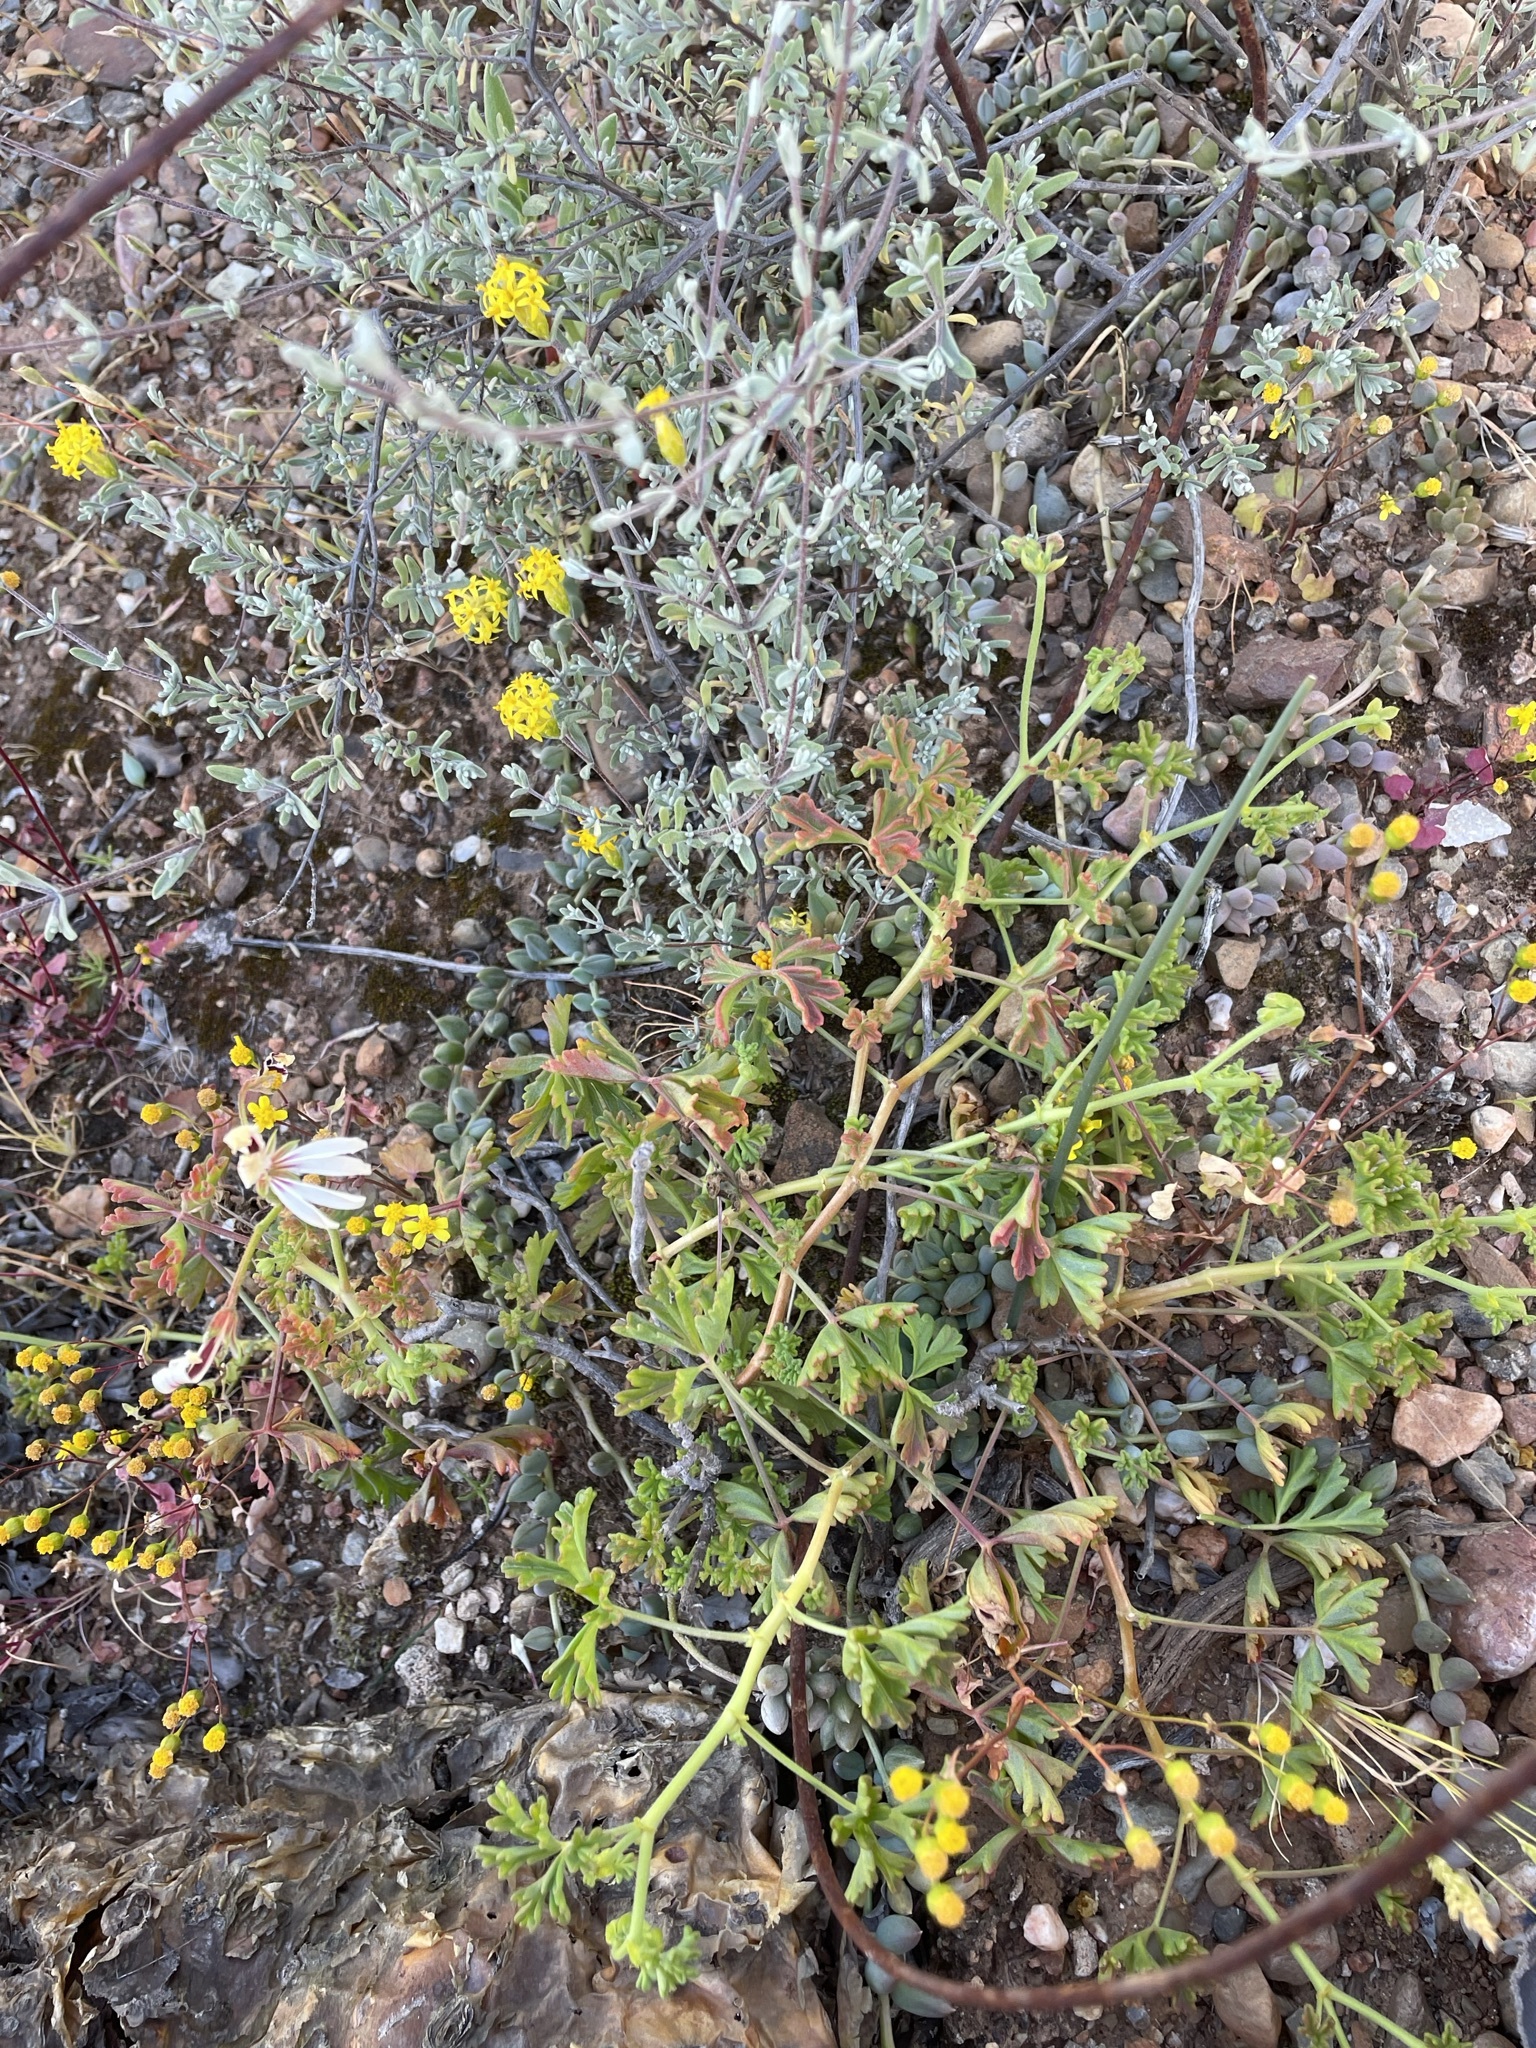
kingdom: Plantae
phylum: Tracheophyta
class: Magnoliopsida
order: Geraniales
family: Geraniaceae
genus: Pelargonium
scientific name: Pelargonium trifidum
